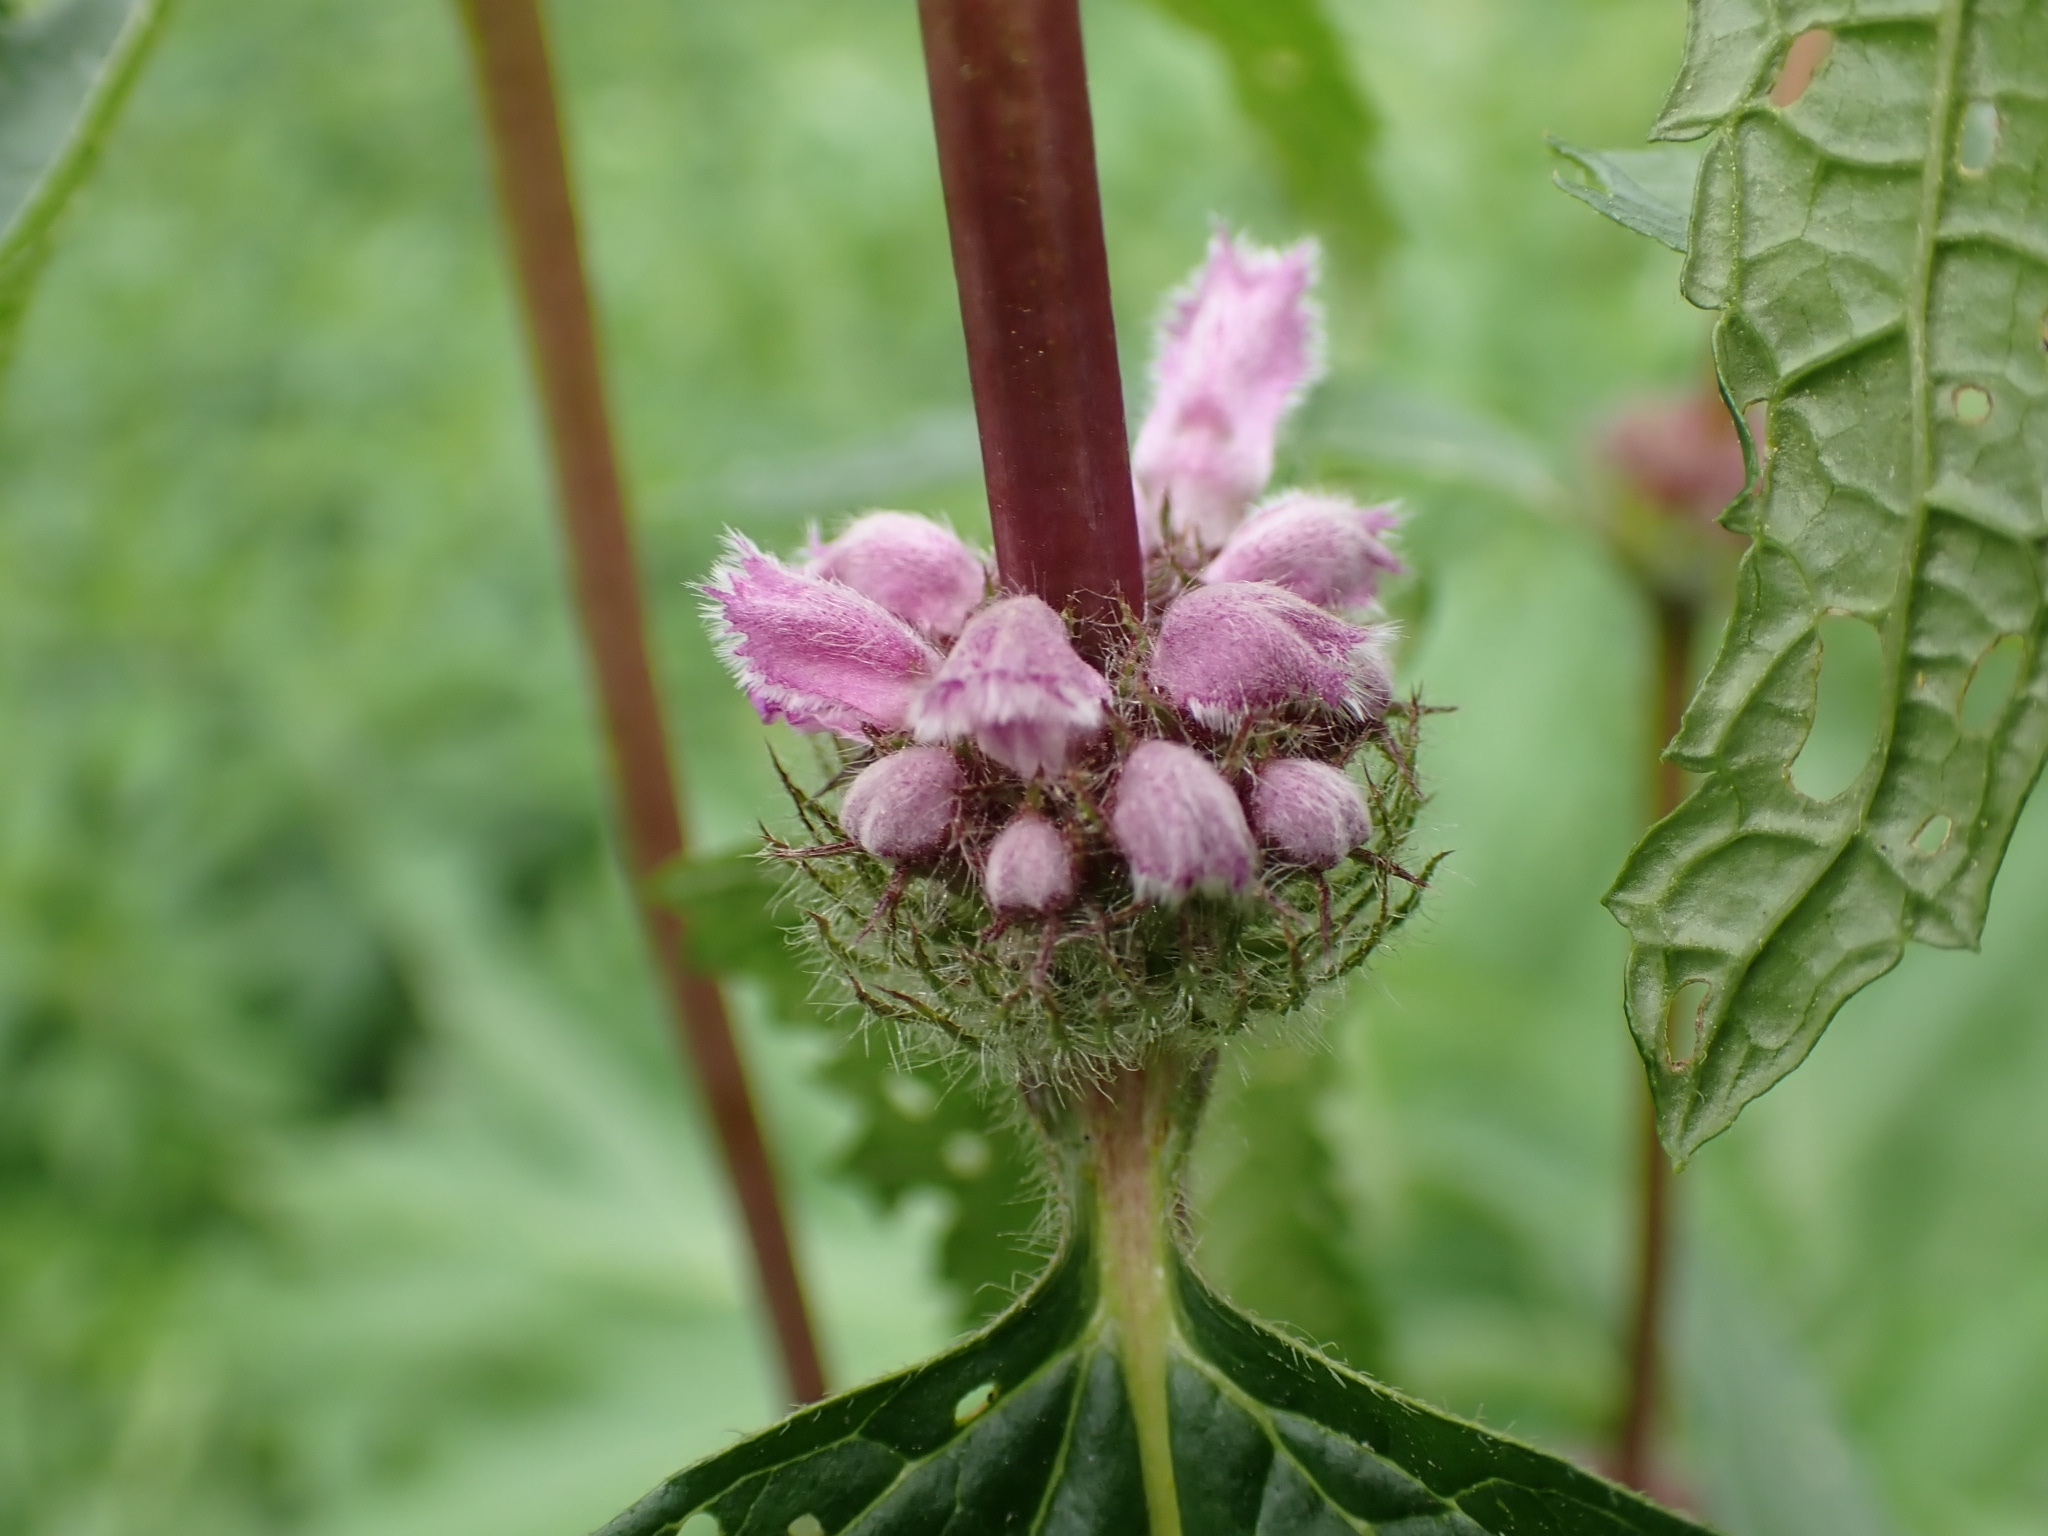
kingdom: Plantae
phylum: Tracheophyta
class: Magnoliopsida
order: Lamiales
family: Lamiaceae
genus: Phlomoides
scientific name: Phlomoides tuberosa
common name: Tuberous jerusalem sage
